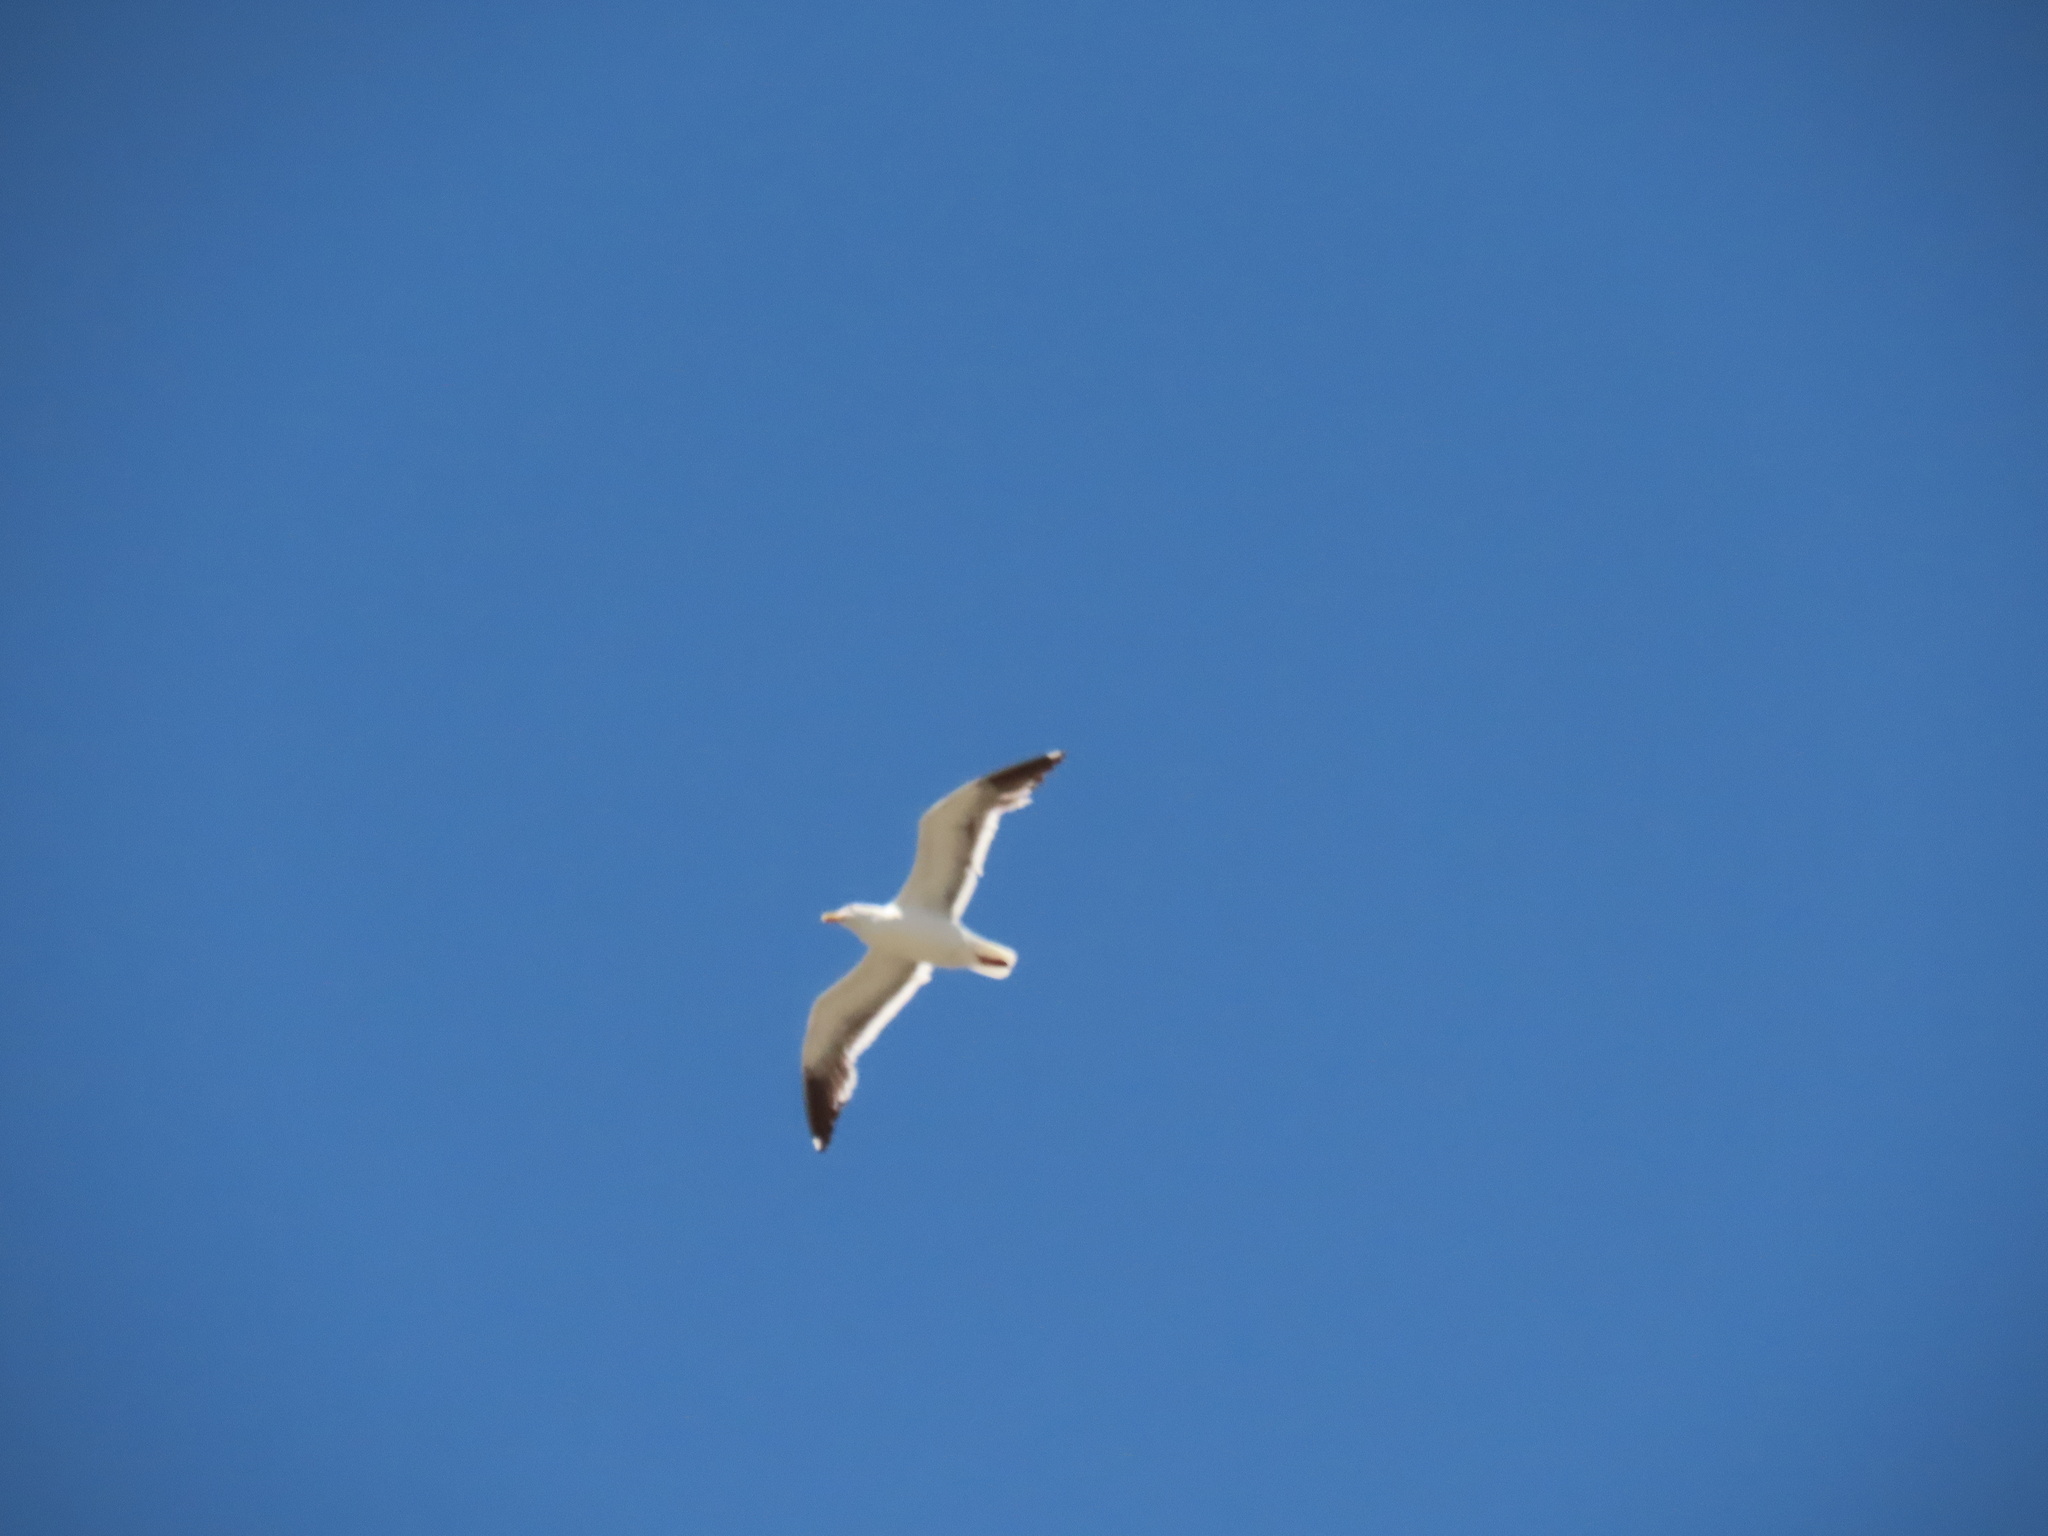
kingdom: Animalia
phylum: Chordata
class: Aves
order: Charadriiformes
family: Laridae
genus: Larus
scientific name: Larus occidentalis
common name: Western gull
